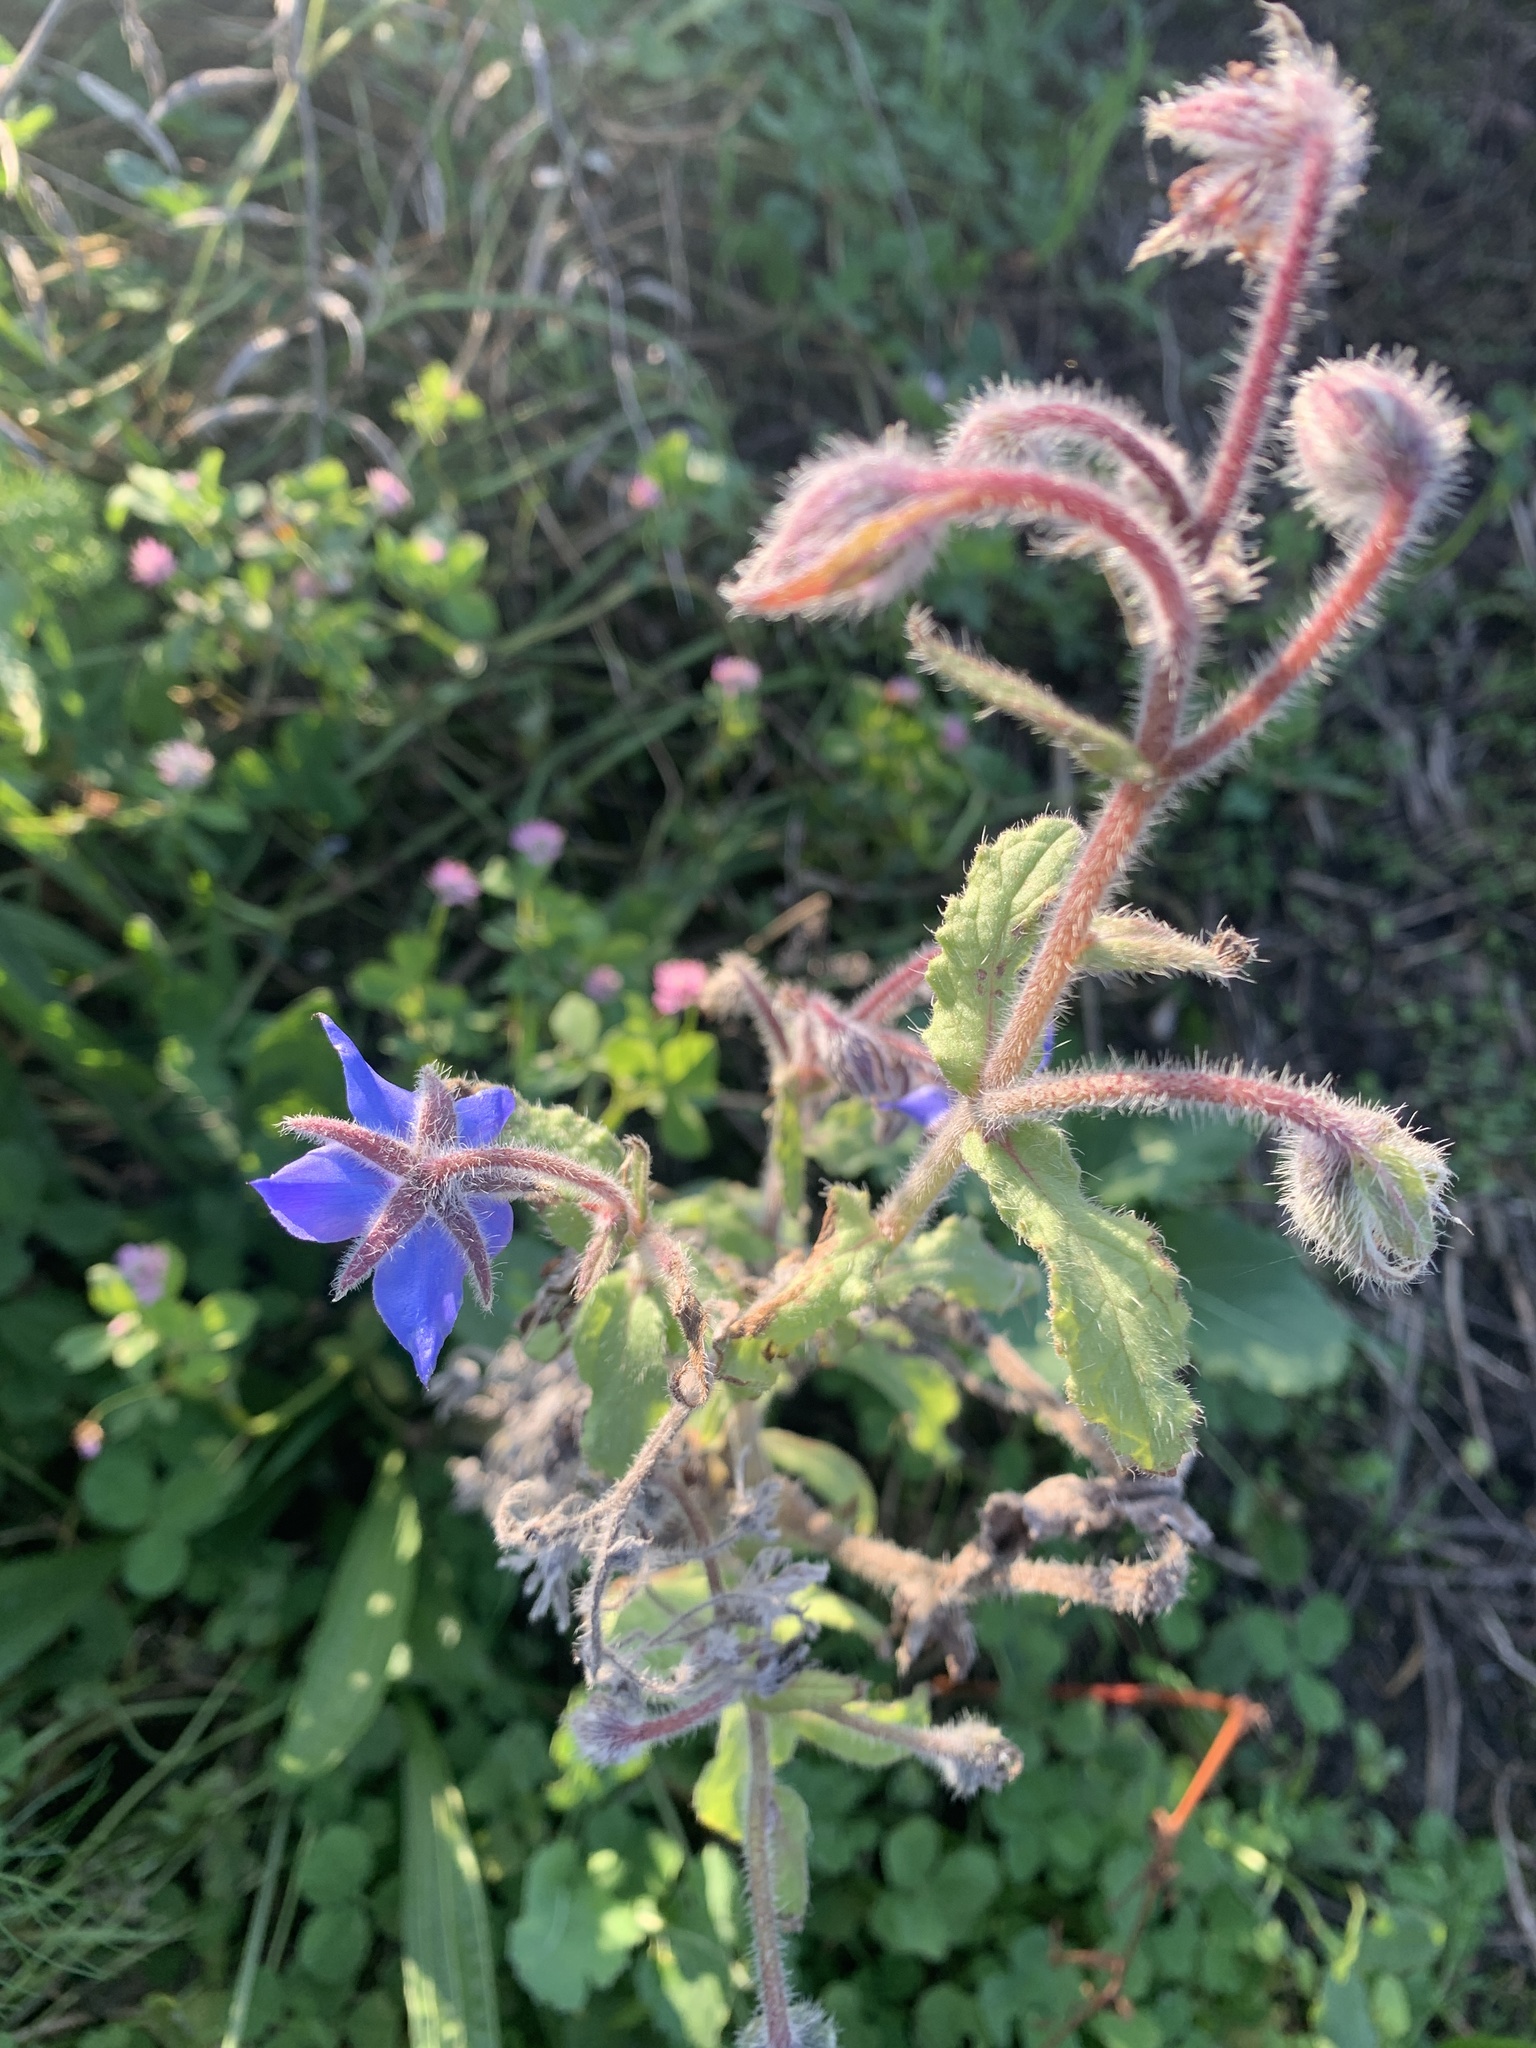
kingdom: Plantae
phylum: Tracheophyta
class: Magnoliopsida
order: Boraginales
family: Boraginaceae
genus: Borago
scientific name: Borago officinalis
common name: Borage
